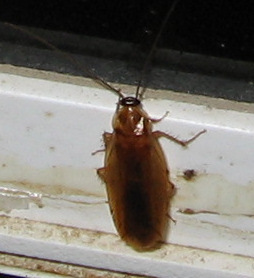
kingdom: Animalia
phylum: Arthropoda
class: Insecta
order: Blattodea
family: Ectobiidae
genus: Parcoblatta
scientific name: Parcoblatta virginica
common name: Virginia wood cockroach
